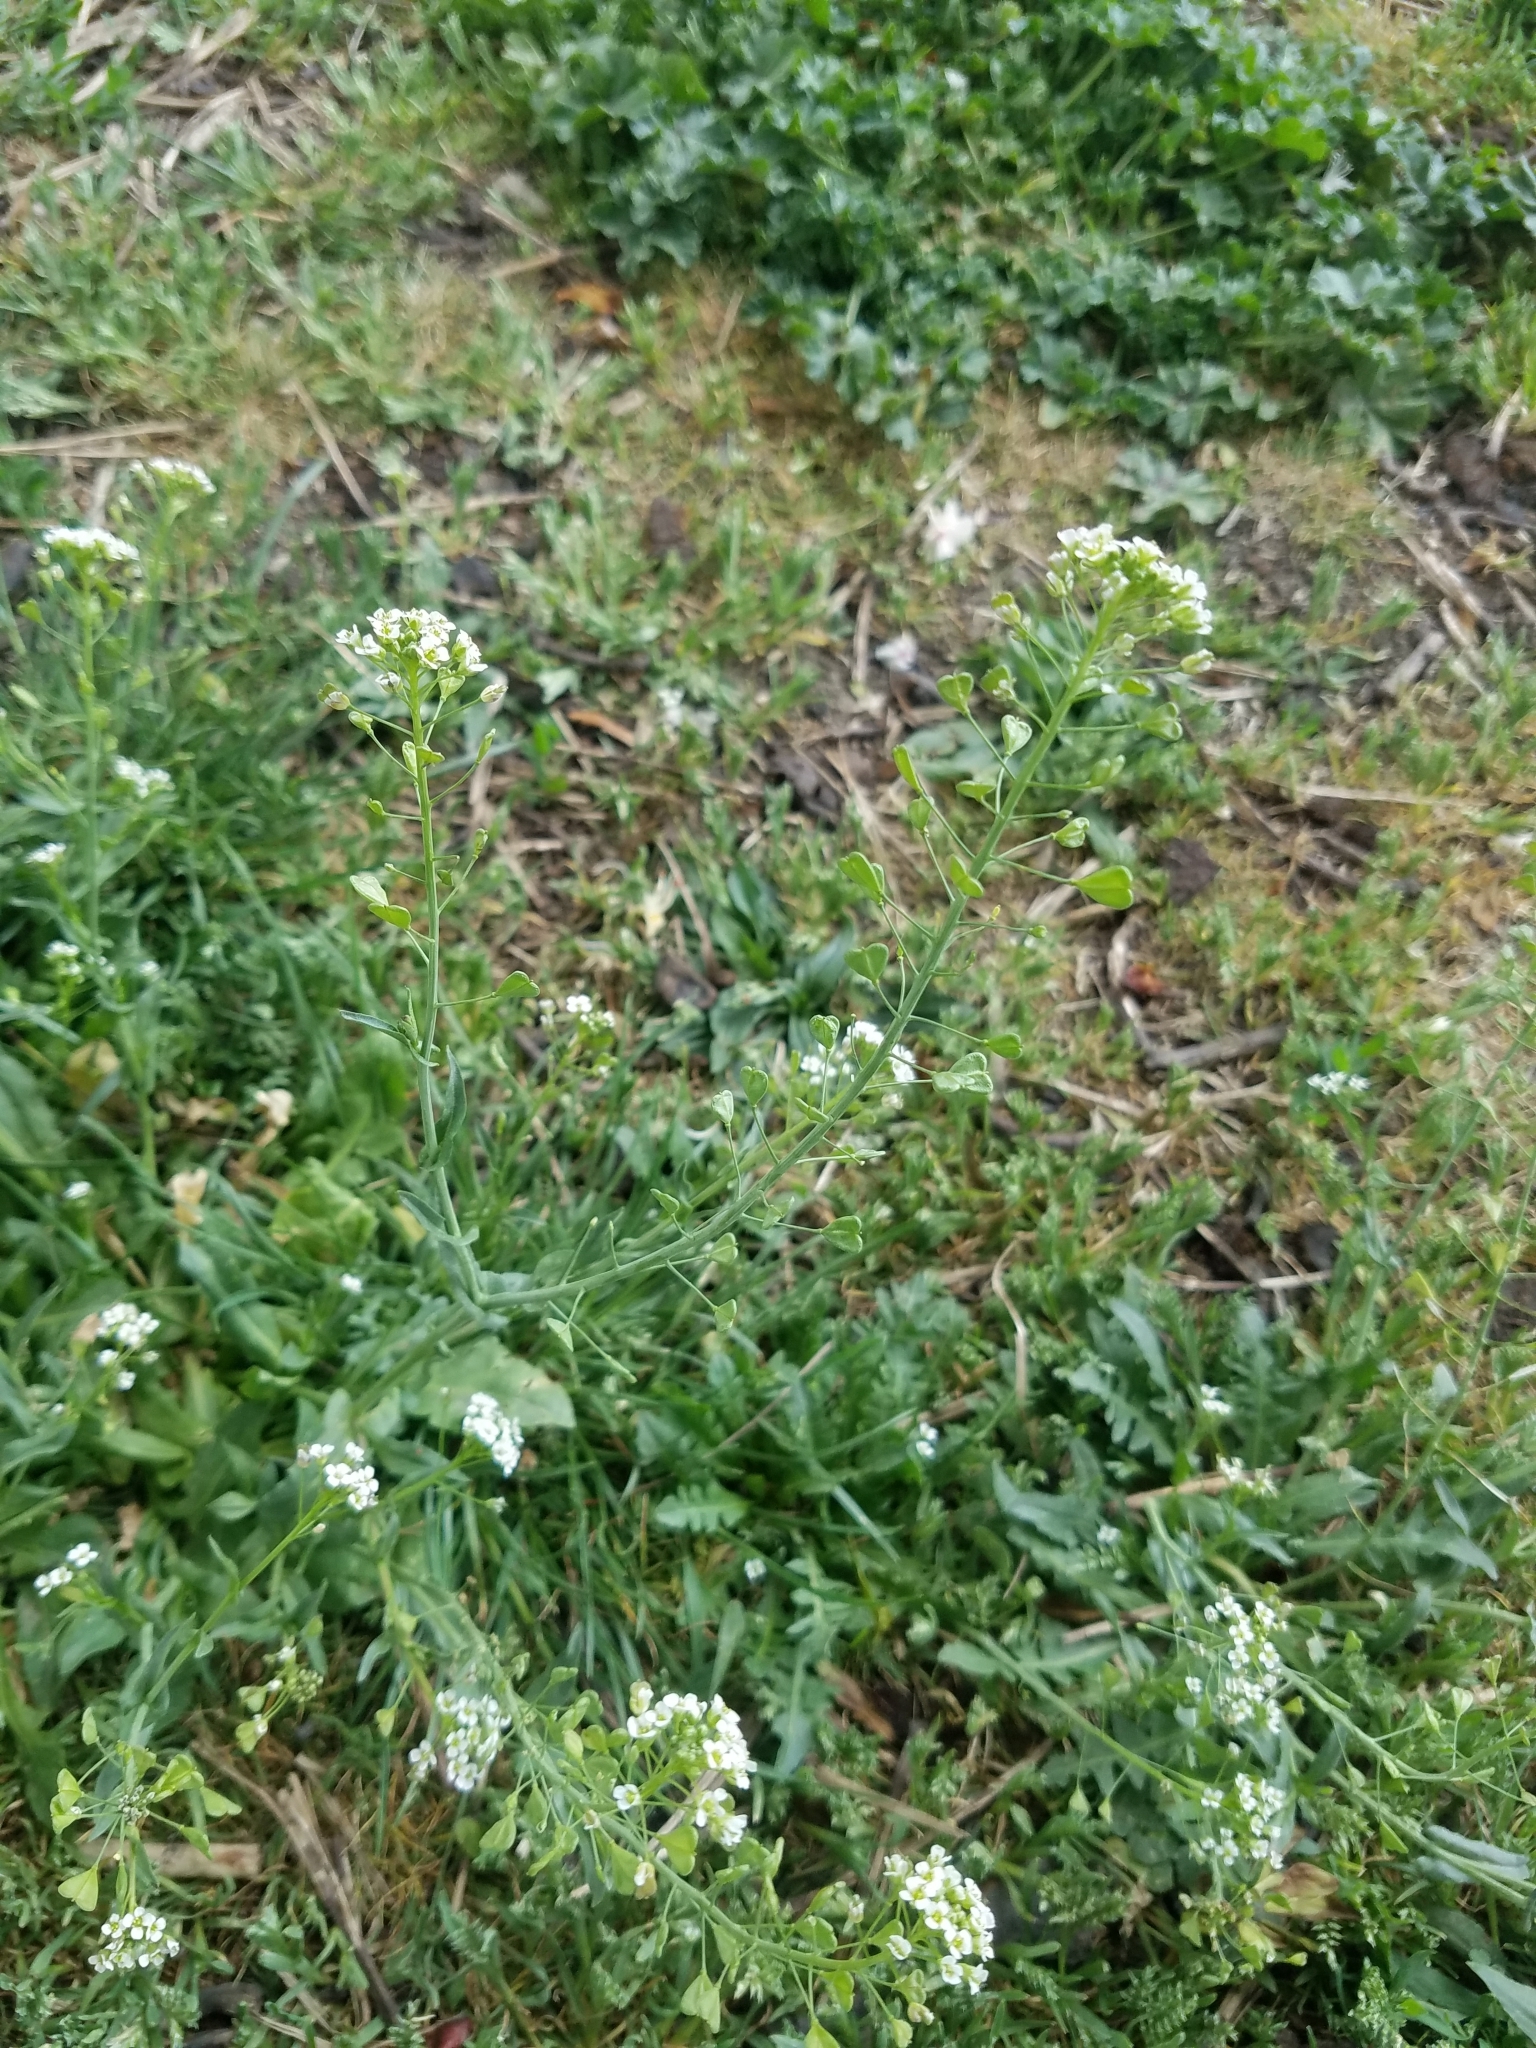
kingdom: Plantae
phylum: Tracheophyta
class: Magnoliopsida
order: Brassicales
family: Brassicaceae
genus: Capsella
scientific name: Capsella bursa-pastoris
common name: Shepherd's purse
